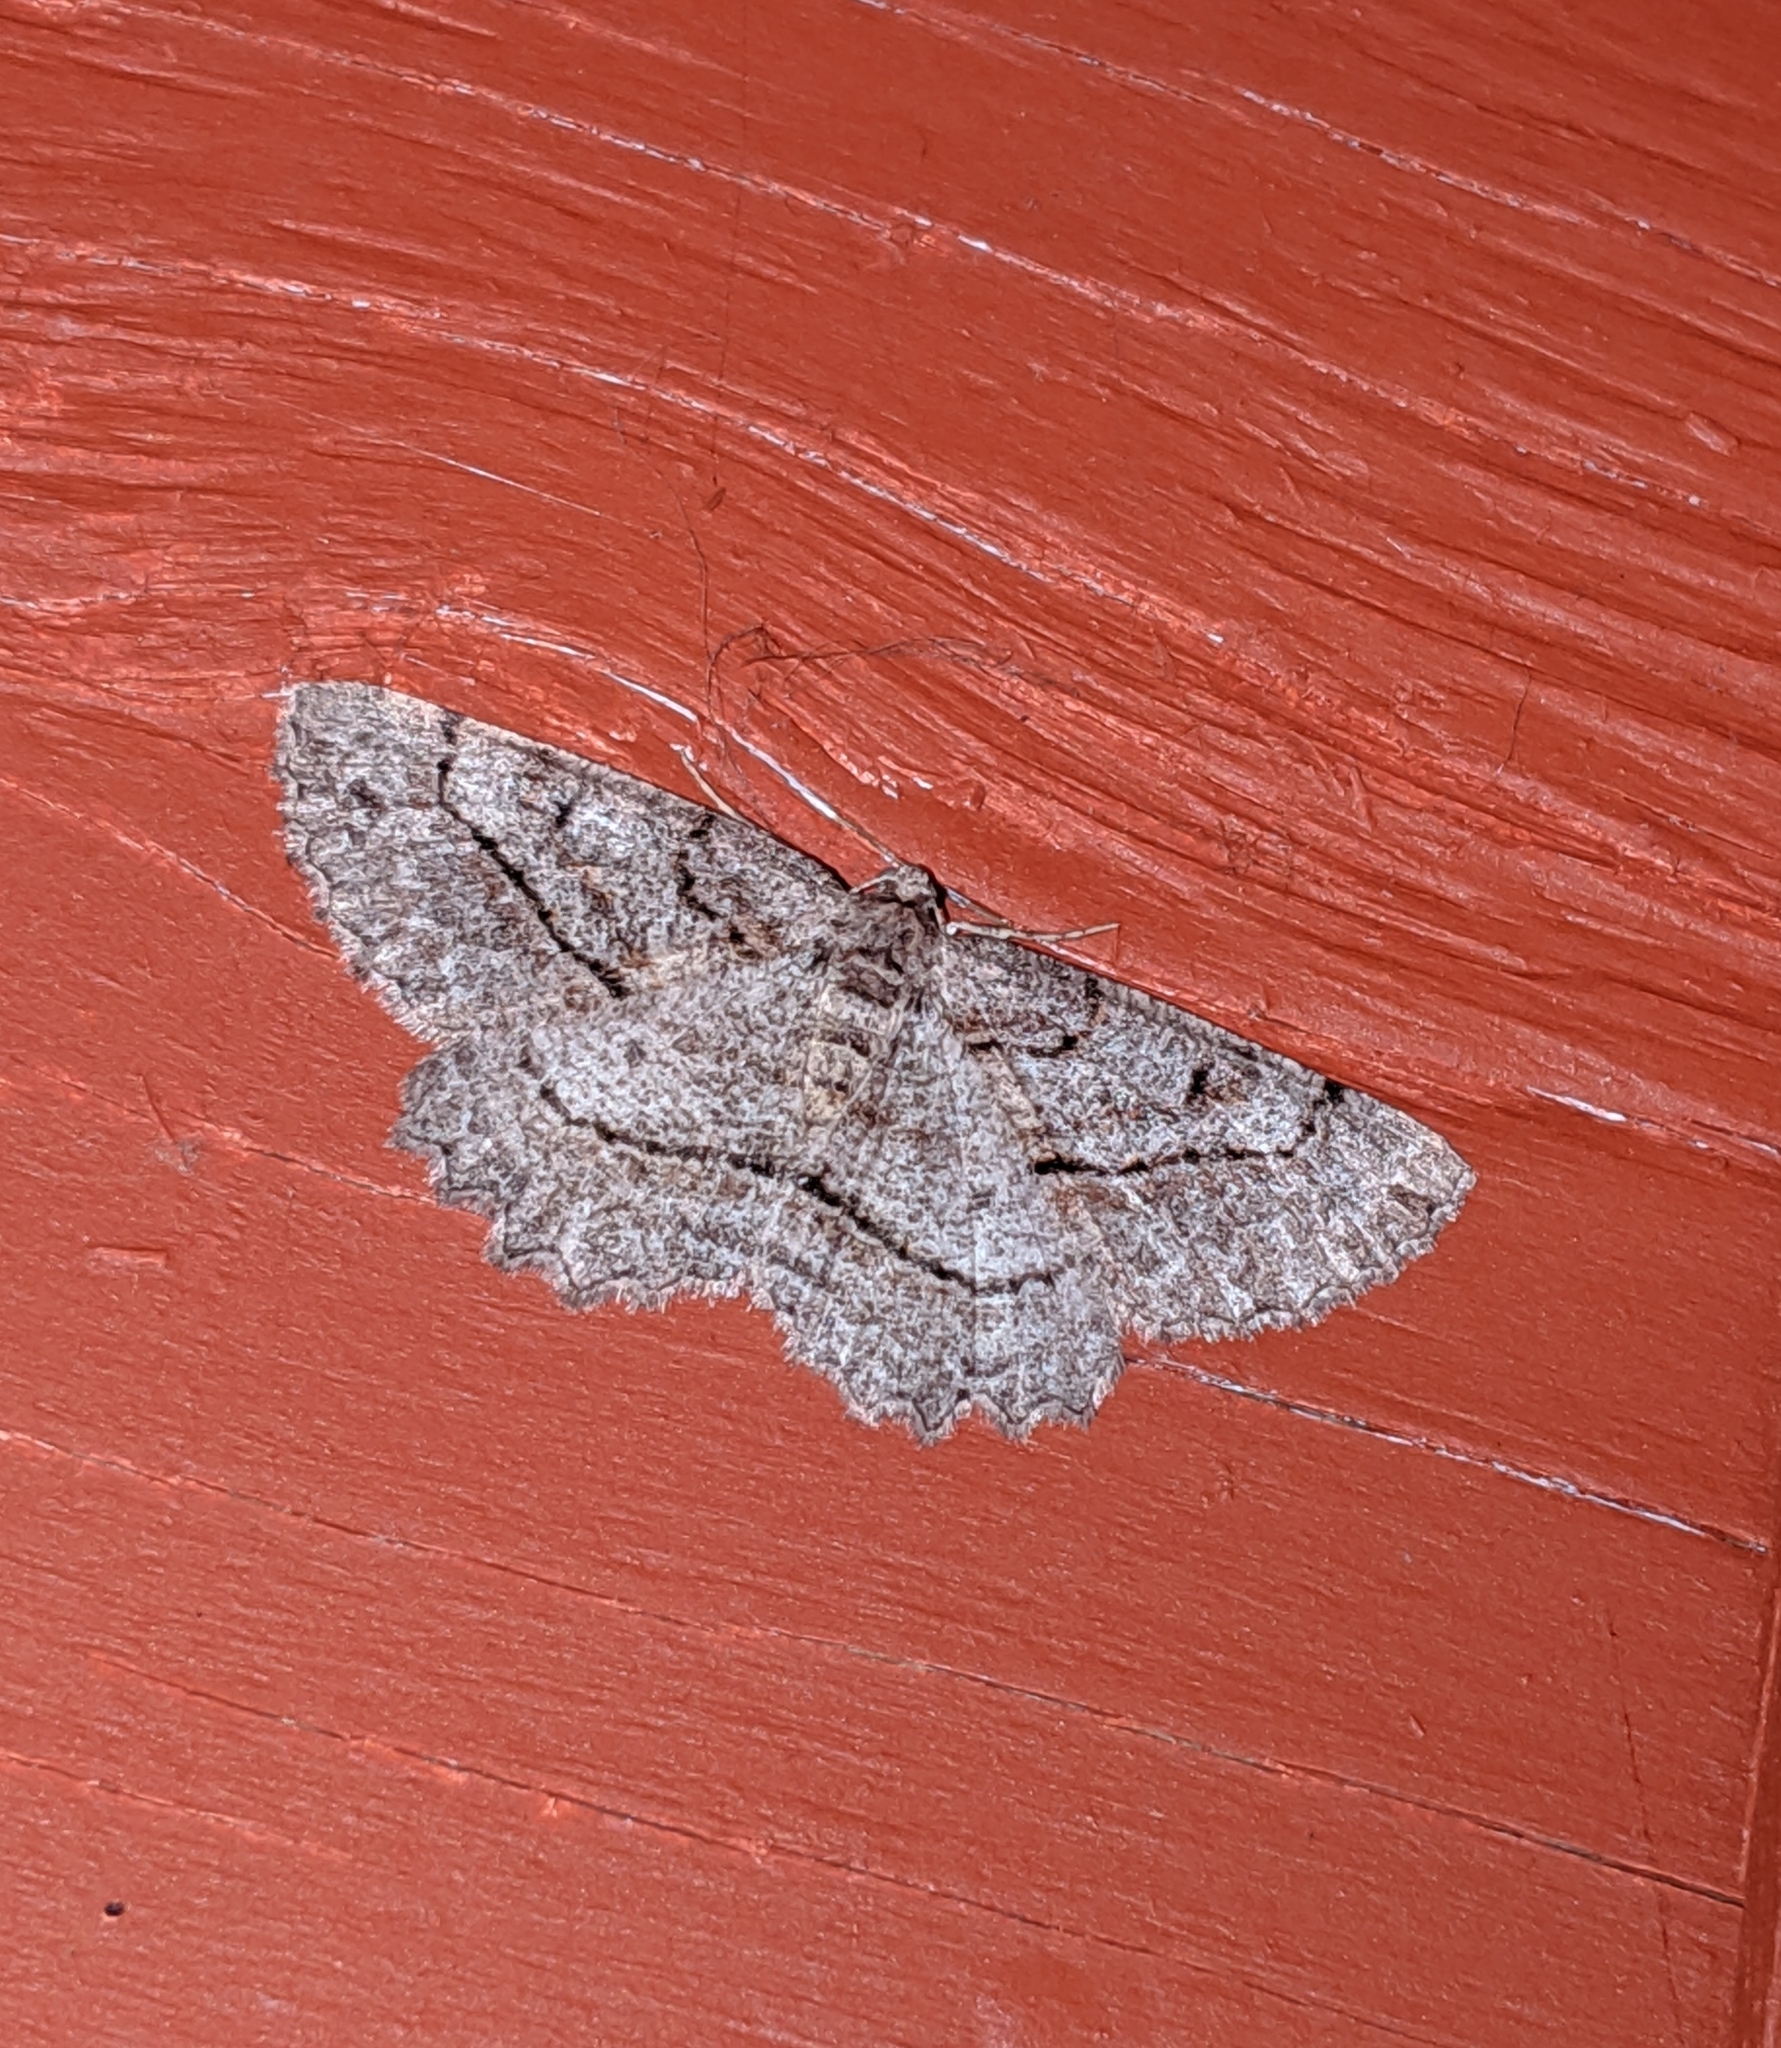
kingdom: Animalia
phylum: Arthropoda
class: Insecta
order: Lepidoptera
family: Geometridae
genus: Neoalcis
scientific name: Neoalcis californiaria
